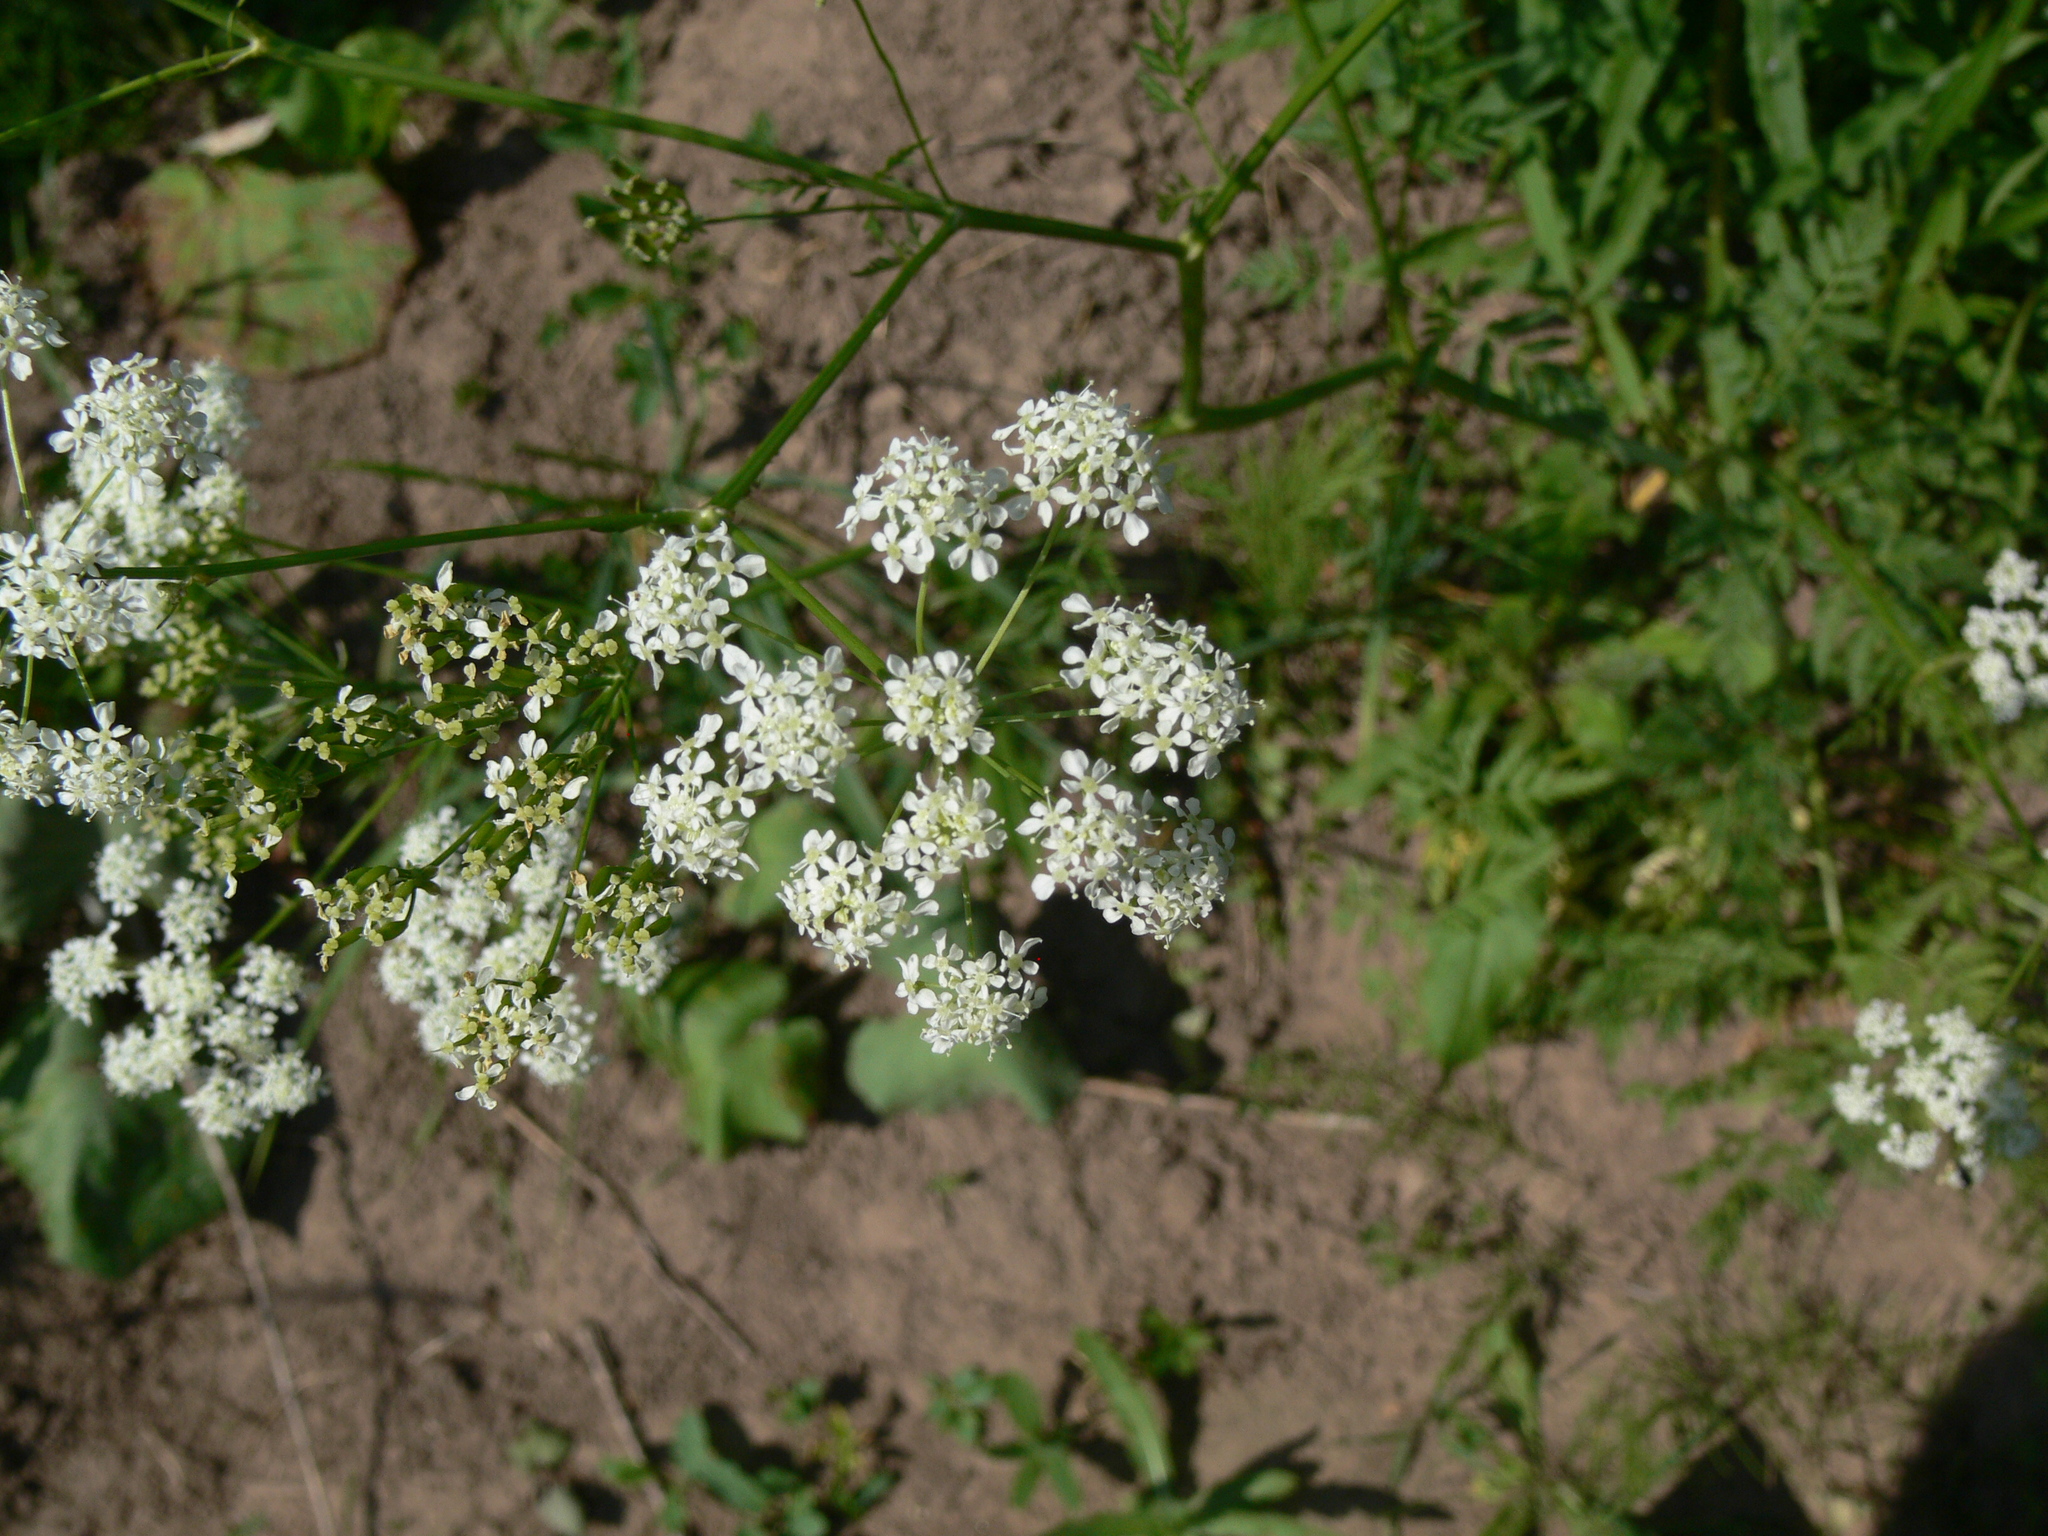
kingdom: Plantae
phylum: Tracheophyta
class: Magnoliopsida
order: Apiales
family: Apiaceae
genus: Conium
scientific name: Conium maculatum
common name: Hemlock
